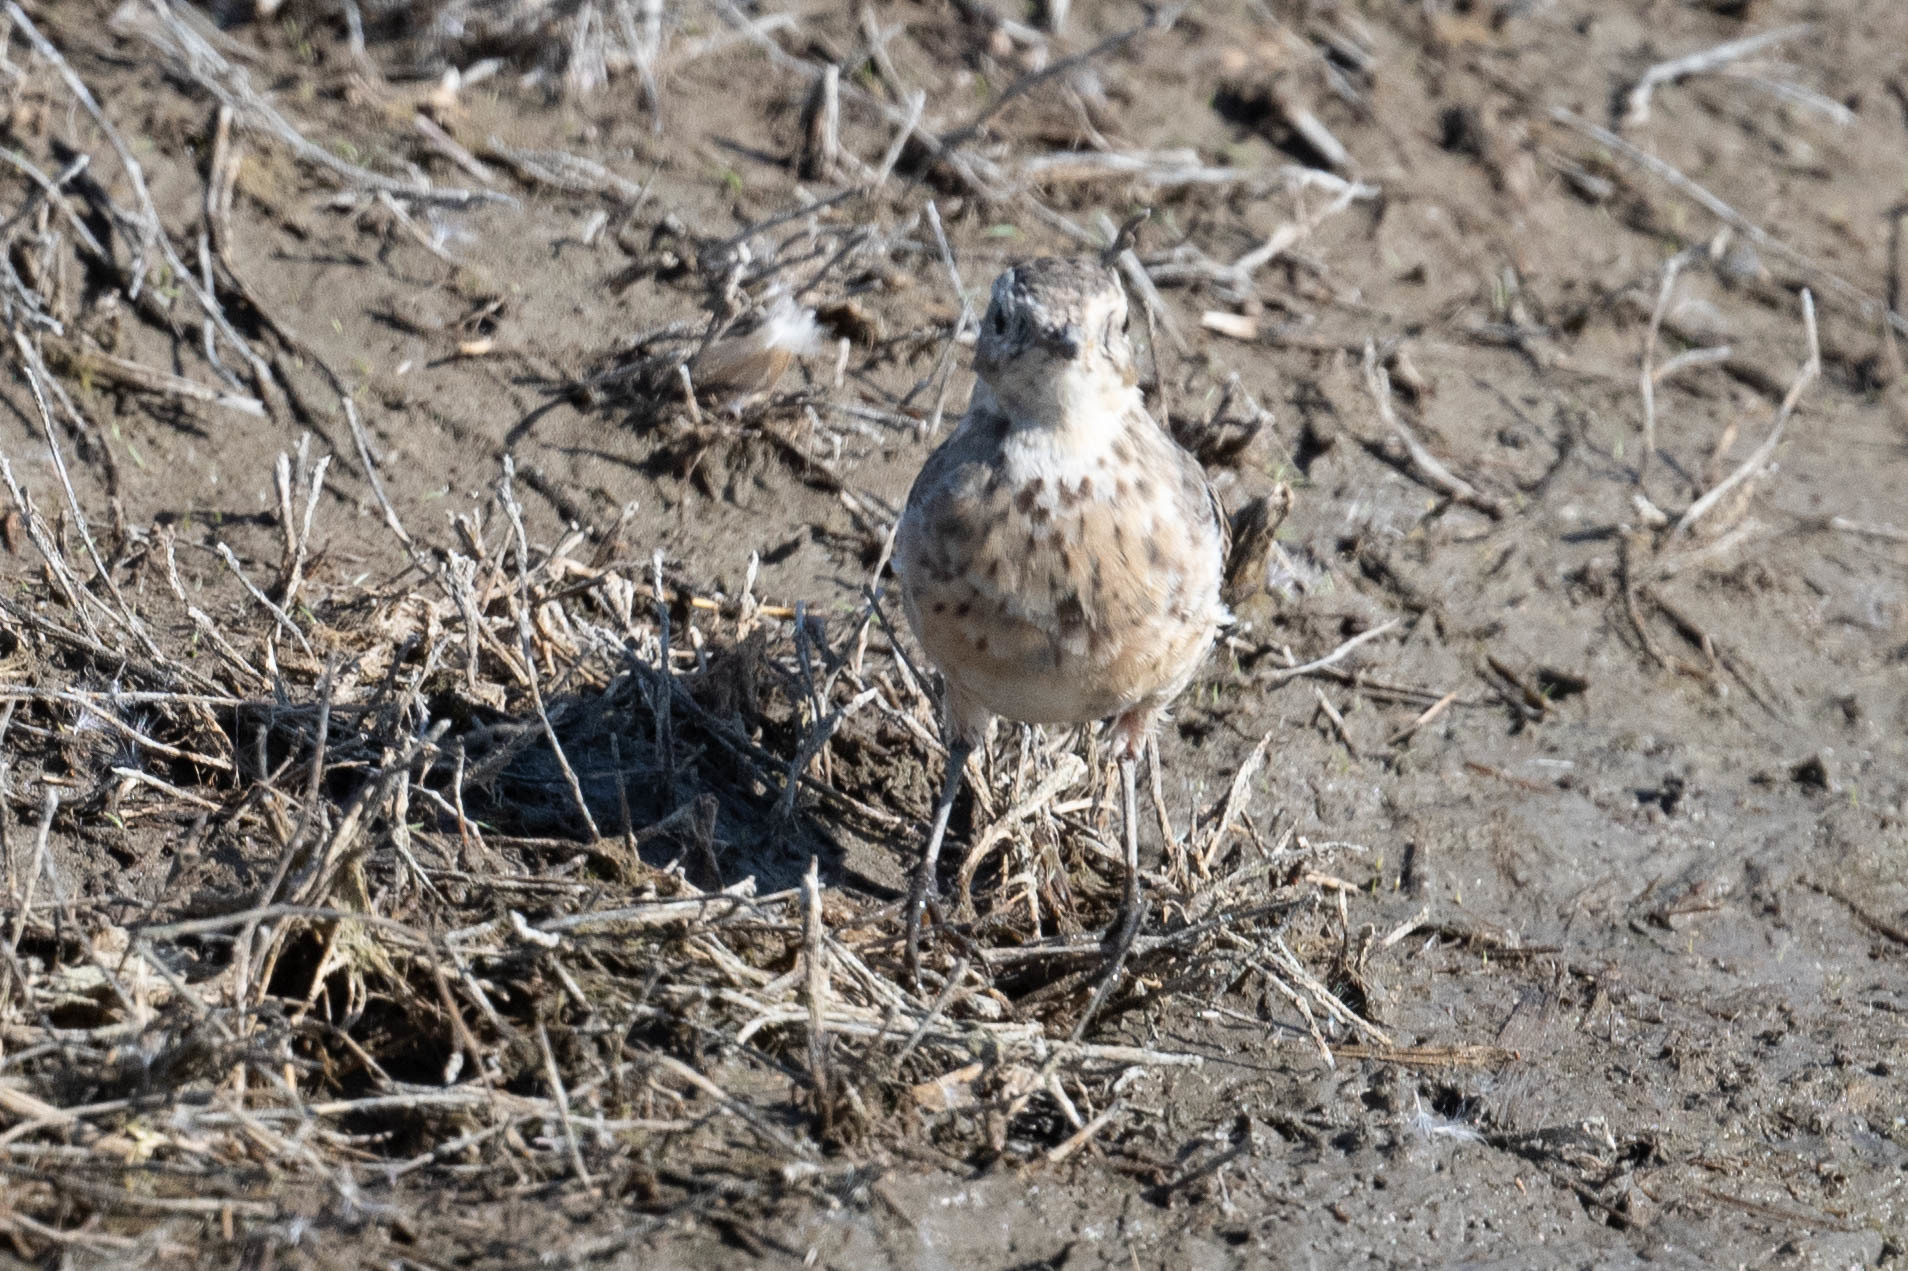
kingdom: Animalia
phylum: Chordata
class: Aves
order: Passeriformes
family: Motacillidae
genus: Anthus
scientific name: Anthus rubescens
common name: Buff-bellied pipit
